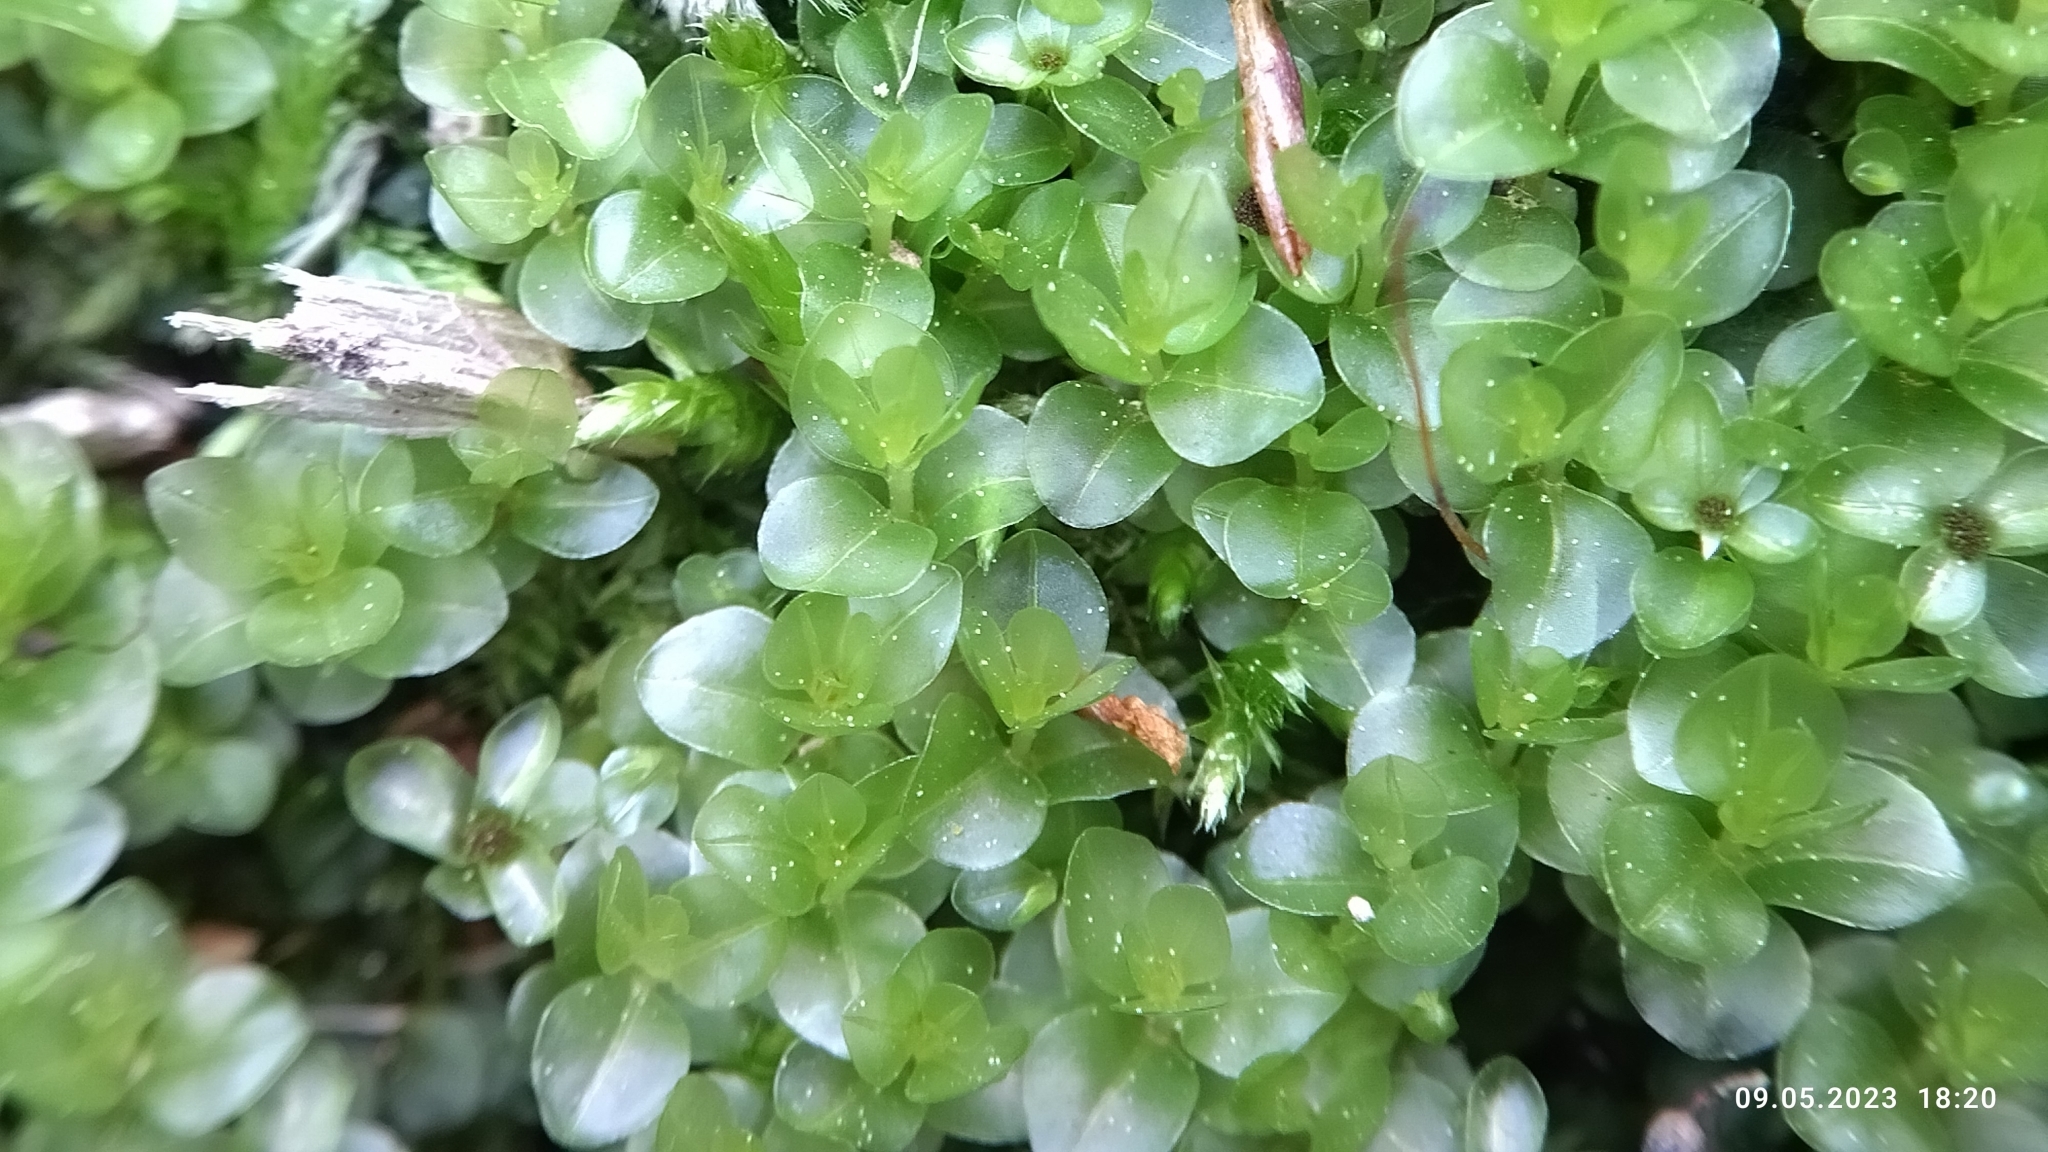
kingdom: Plantae
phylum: Bryophyta
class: Bryopsida
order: Bryales
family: Mniaceae
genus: Rhizomnium
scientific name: Rhizomnium punctatum
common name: Dotted leafy moss
